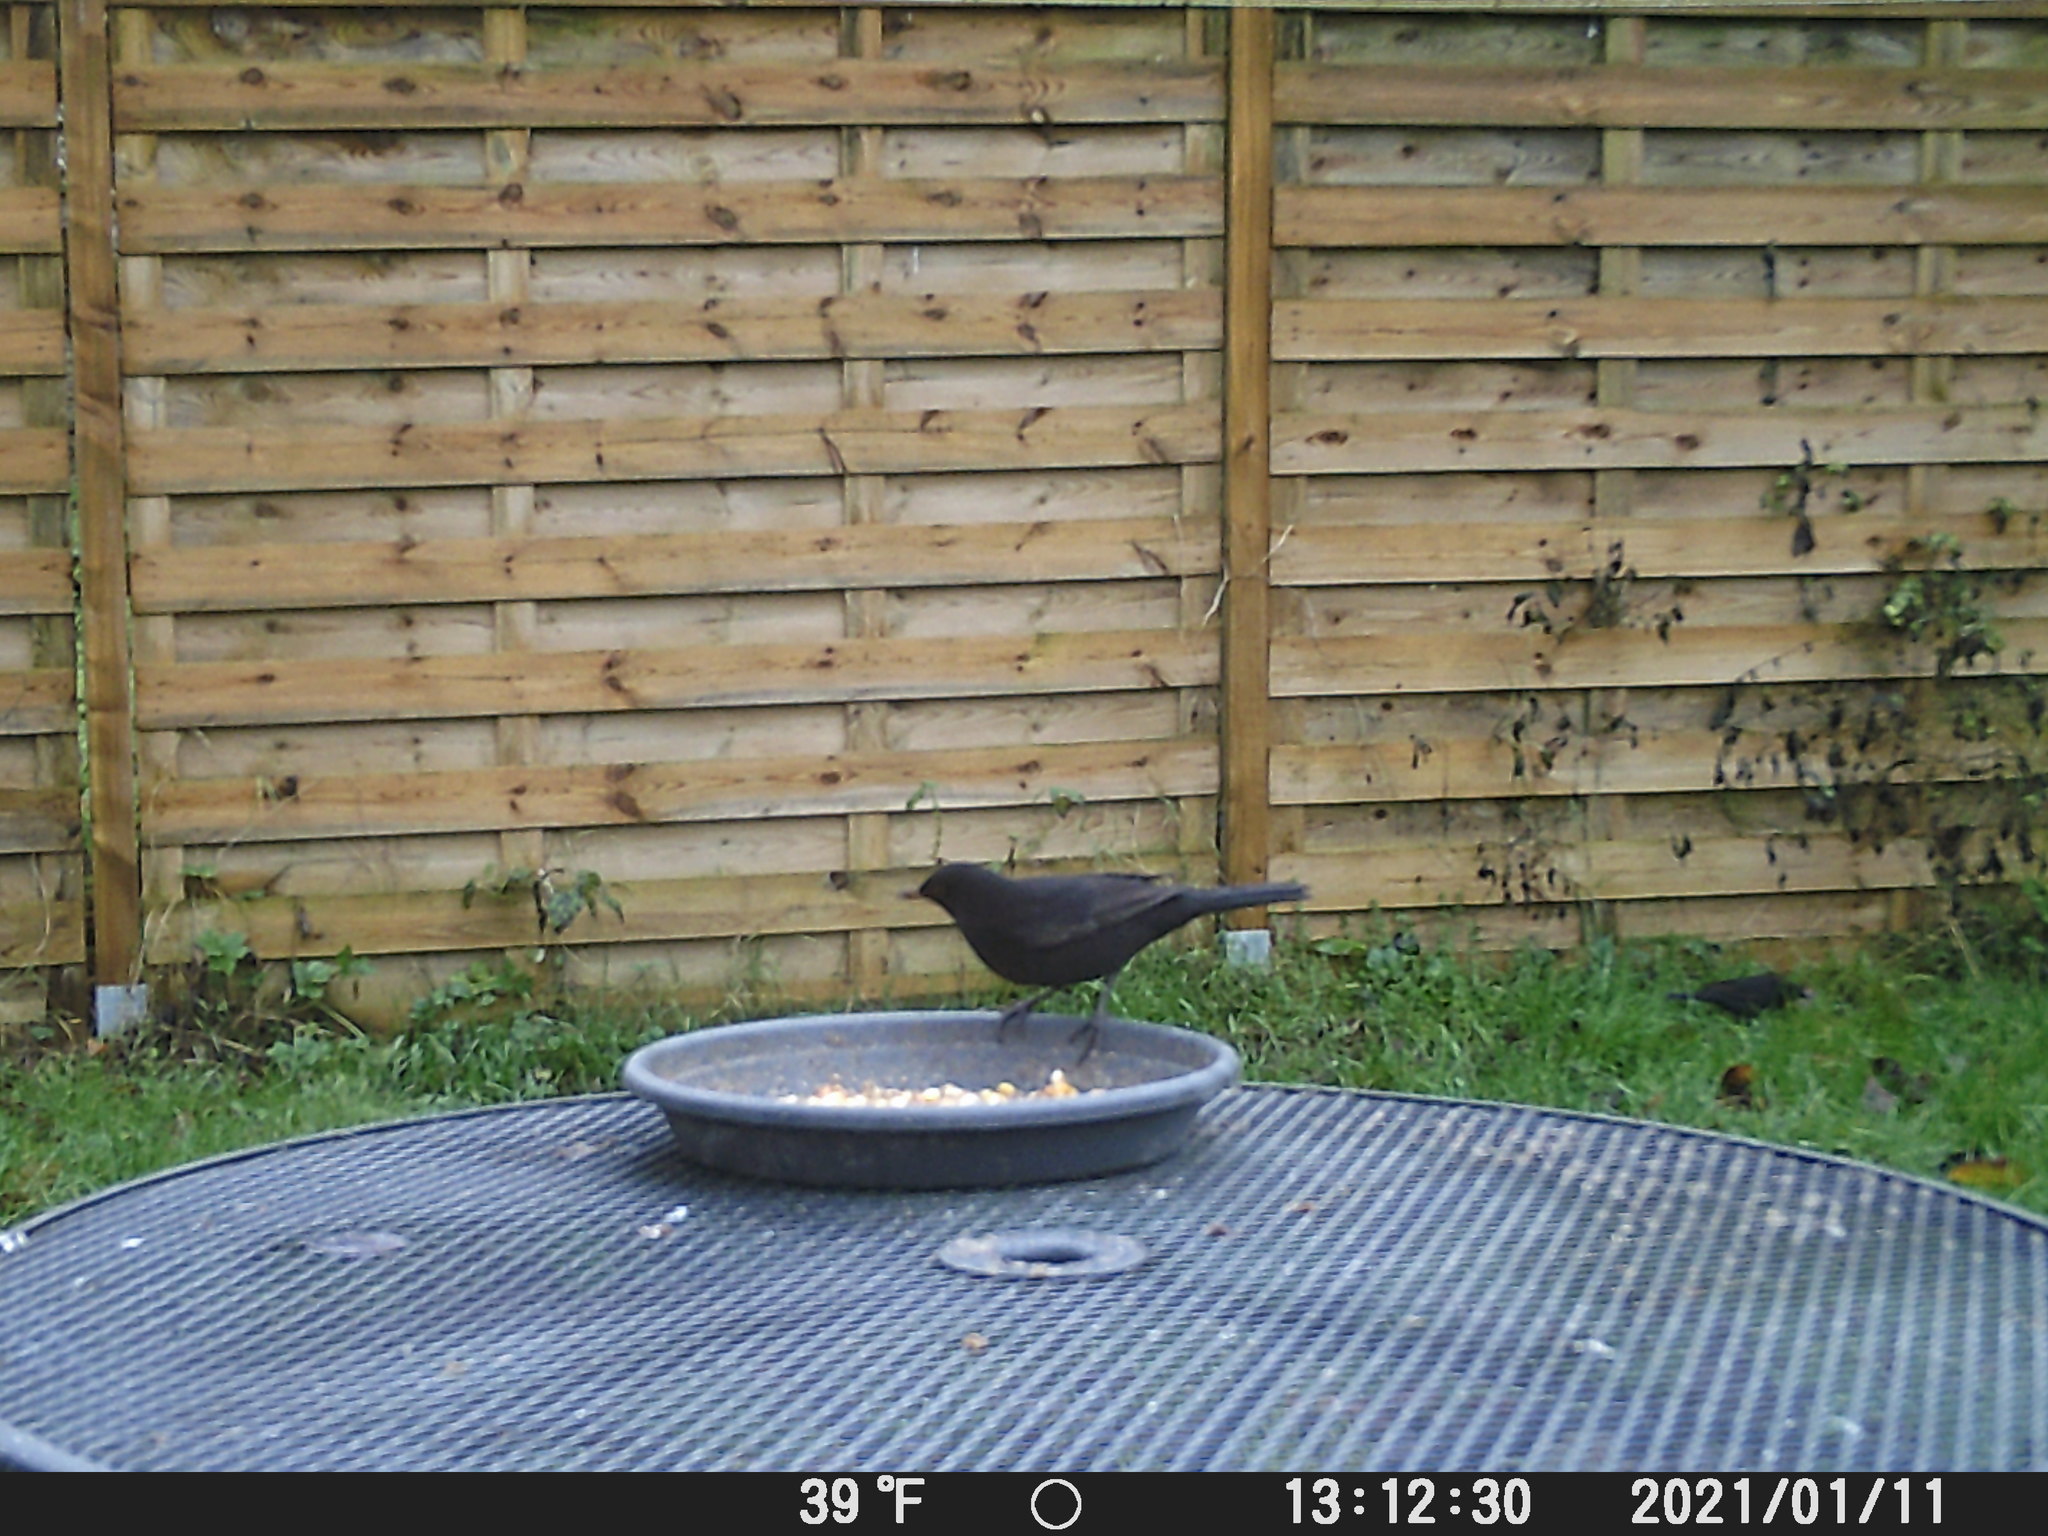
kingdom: Animalia
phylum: Chordata
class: Aves
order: Passeriformes
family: Turdidae
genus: Turdus
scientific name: Turdus merula
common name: Common blackbird
